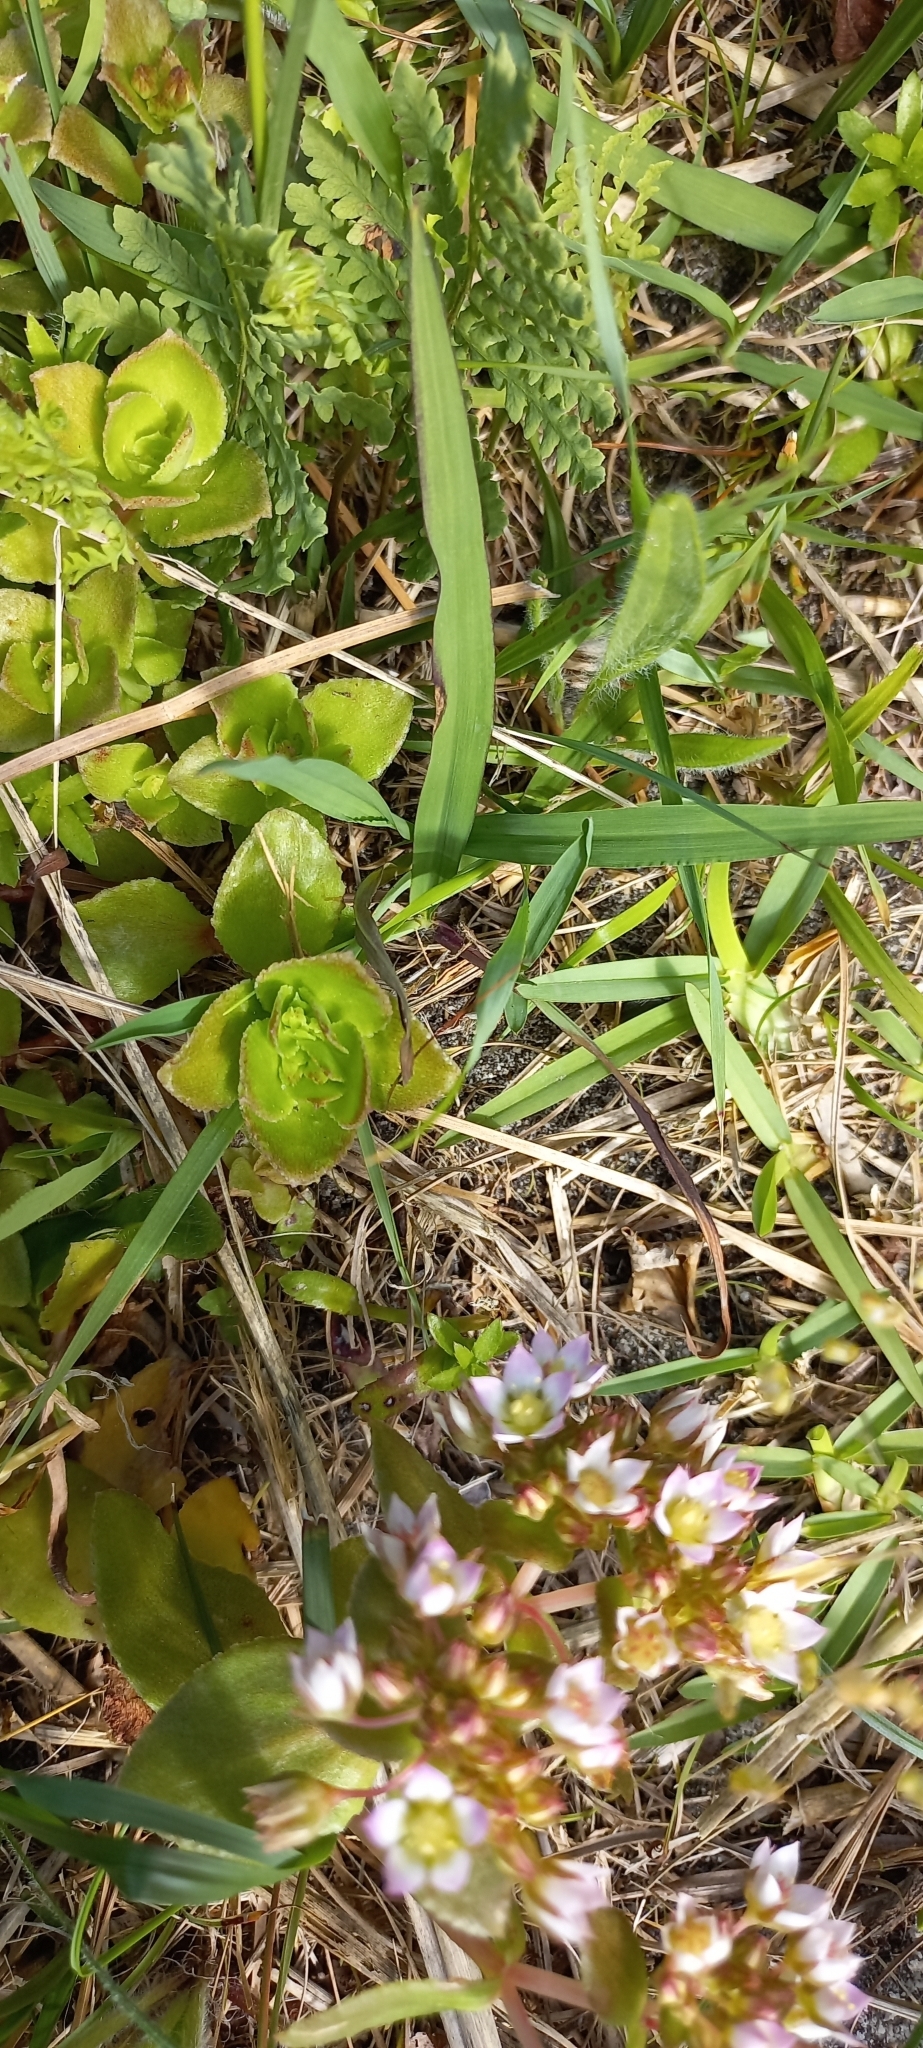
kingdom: Plantae
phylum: Tracheophyta
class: Magnoliopsida
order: Saxifragales
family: Crassulaceae
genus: Crassula
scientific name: Crassula pellucida
